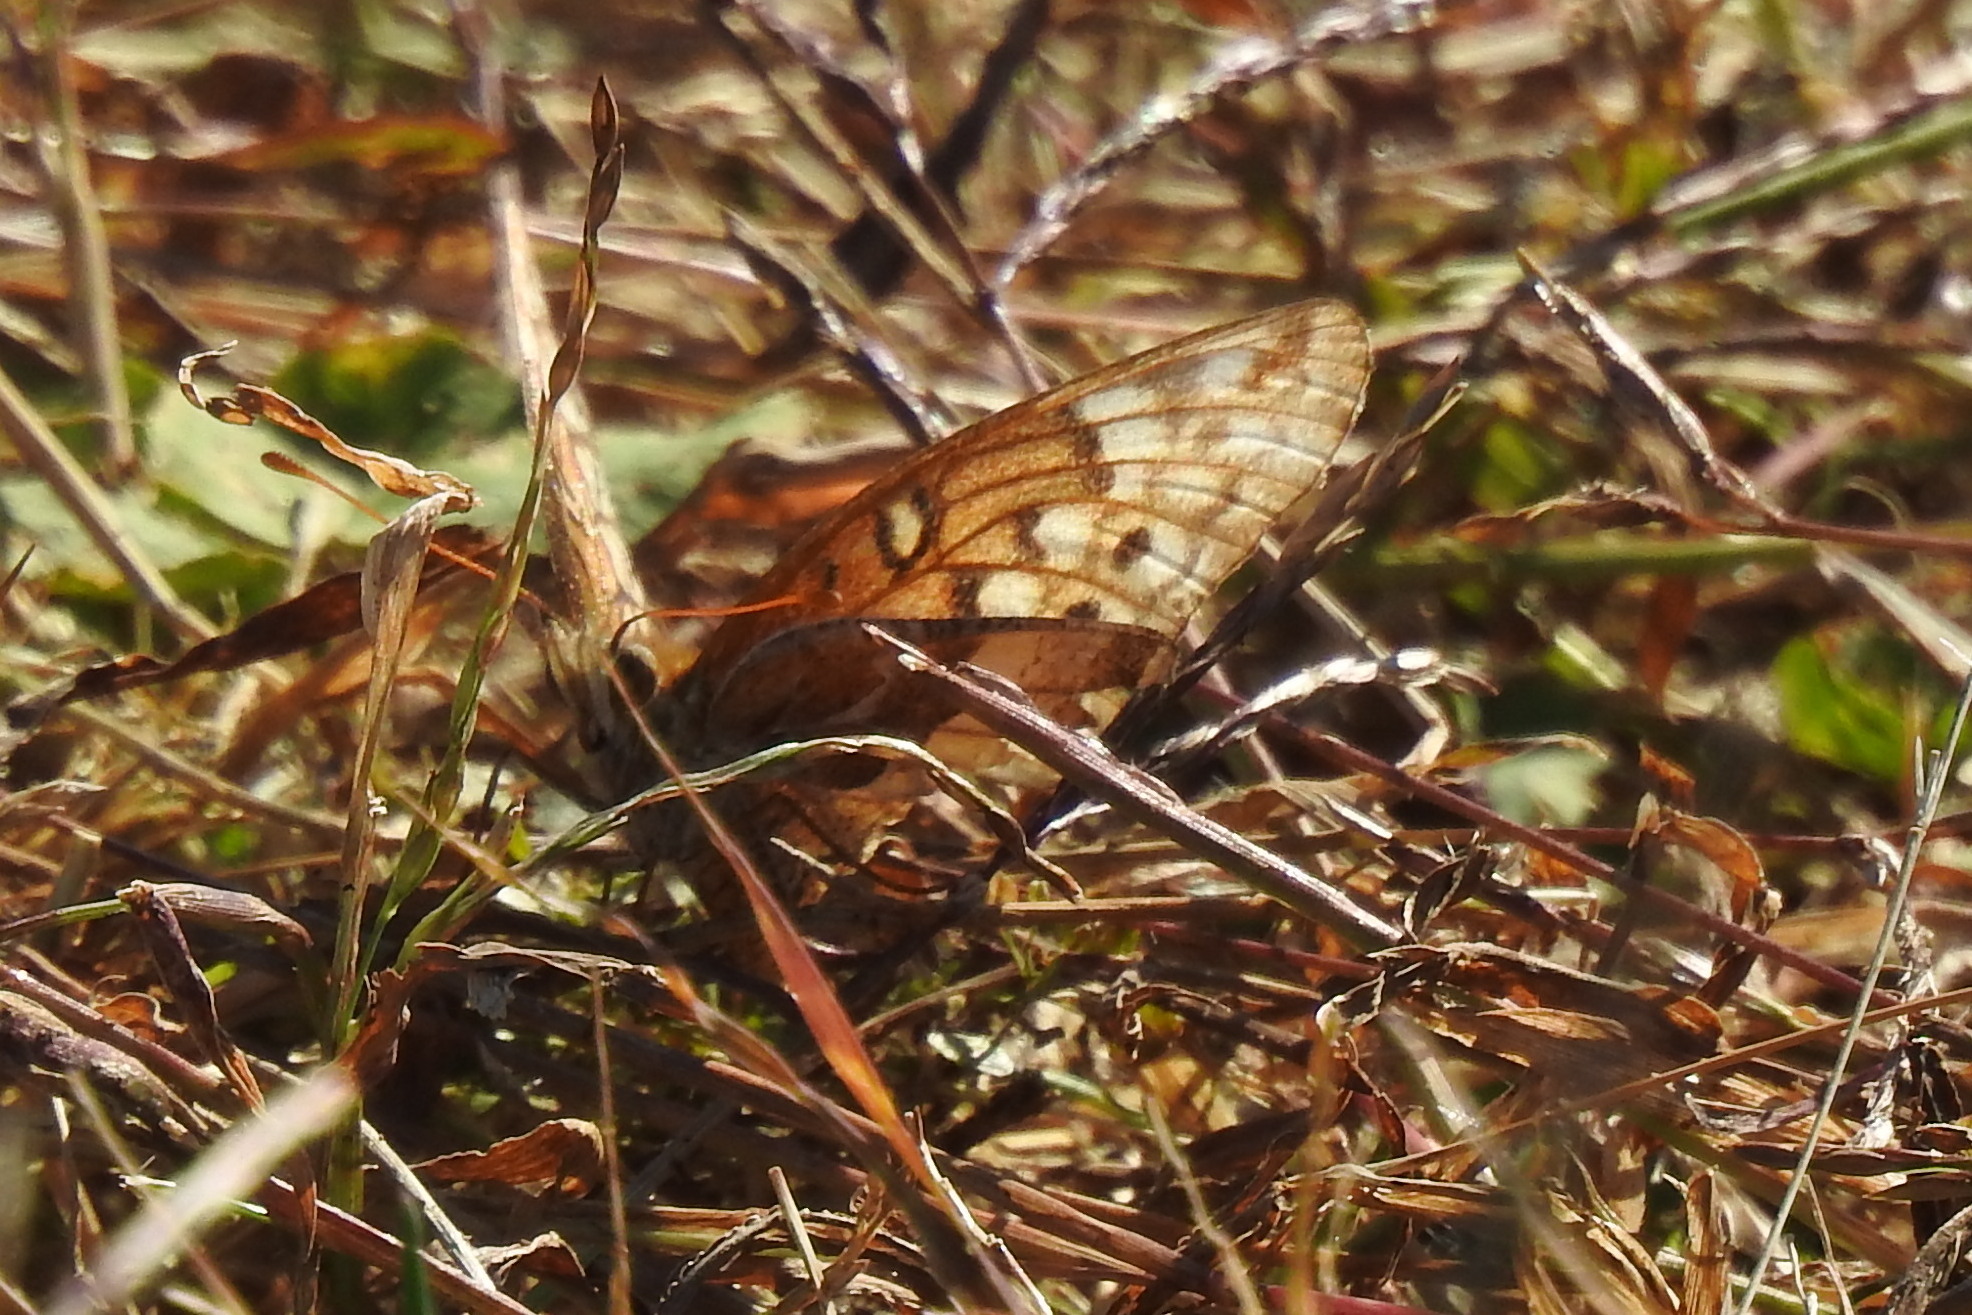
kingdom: Animalia
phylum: Arthropoda
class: Insecta
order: Lepidoptera
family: Nymphalidae
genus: Euptoieta
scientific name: Euptoieta claudia
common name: Variegated fritillary
